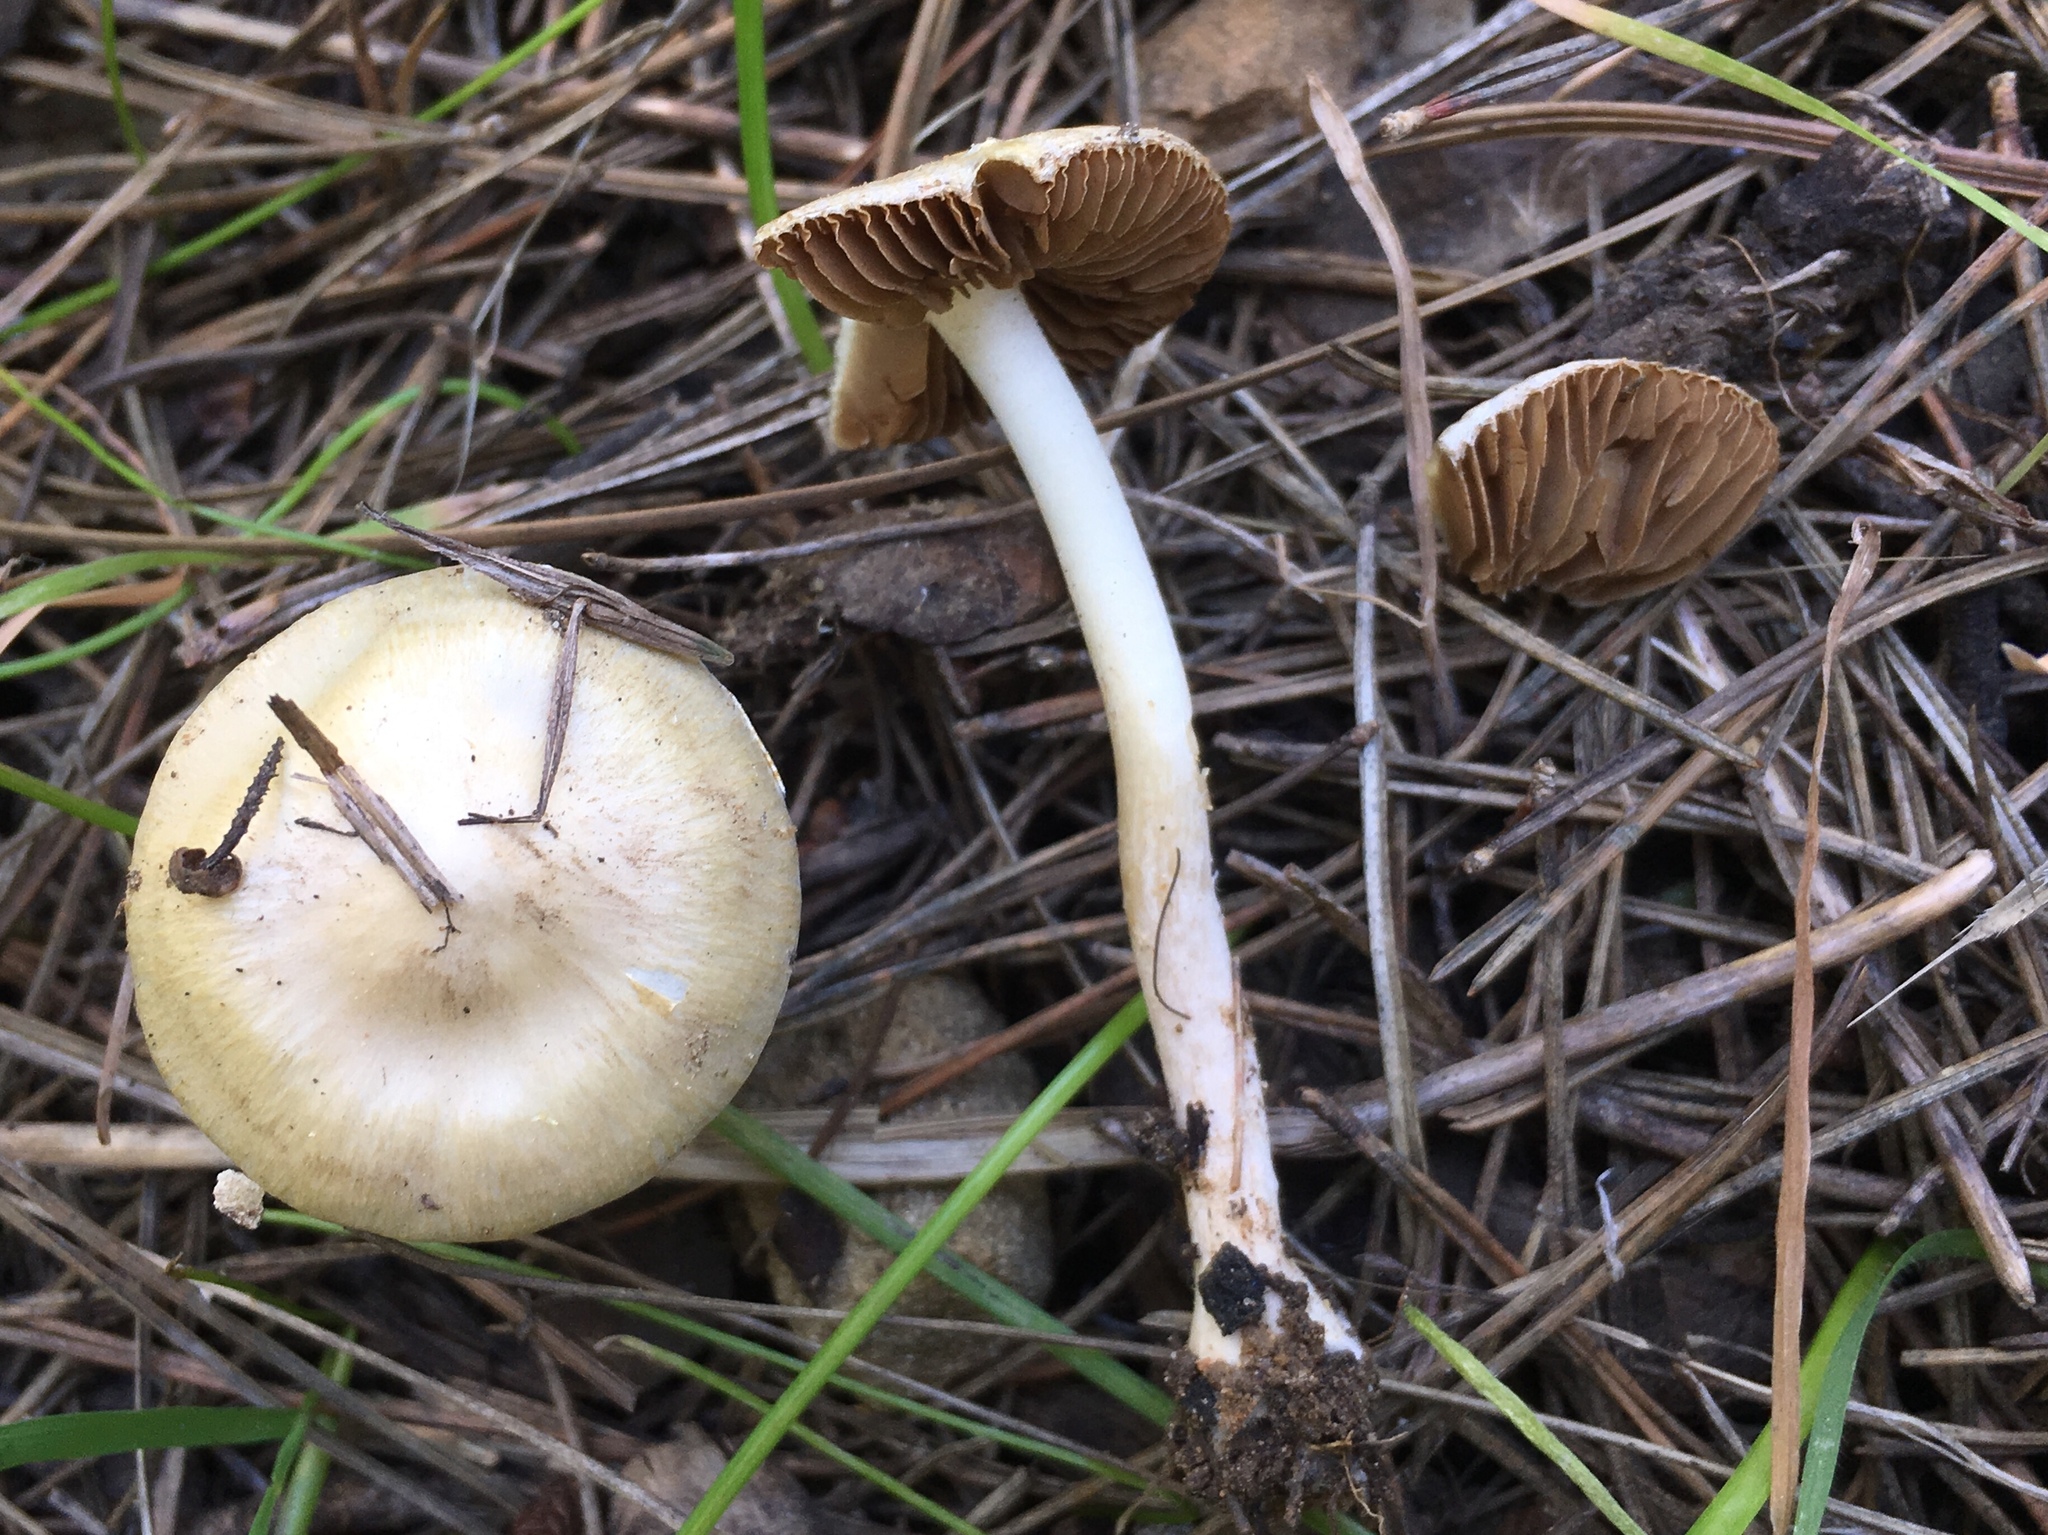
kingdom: Fungi
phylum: Basidiomycota
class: Agaricomycetes
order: Agaricales
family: Strophariaceae
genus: Agrocybe
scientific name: Agrocybe pediades
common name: Common fieldcap
